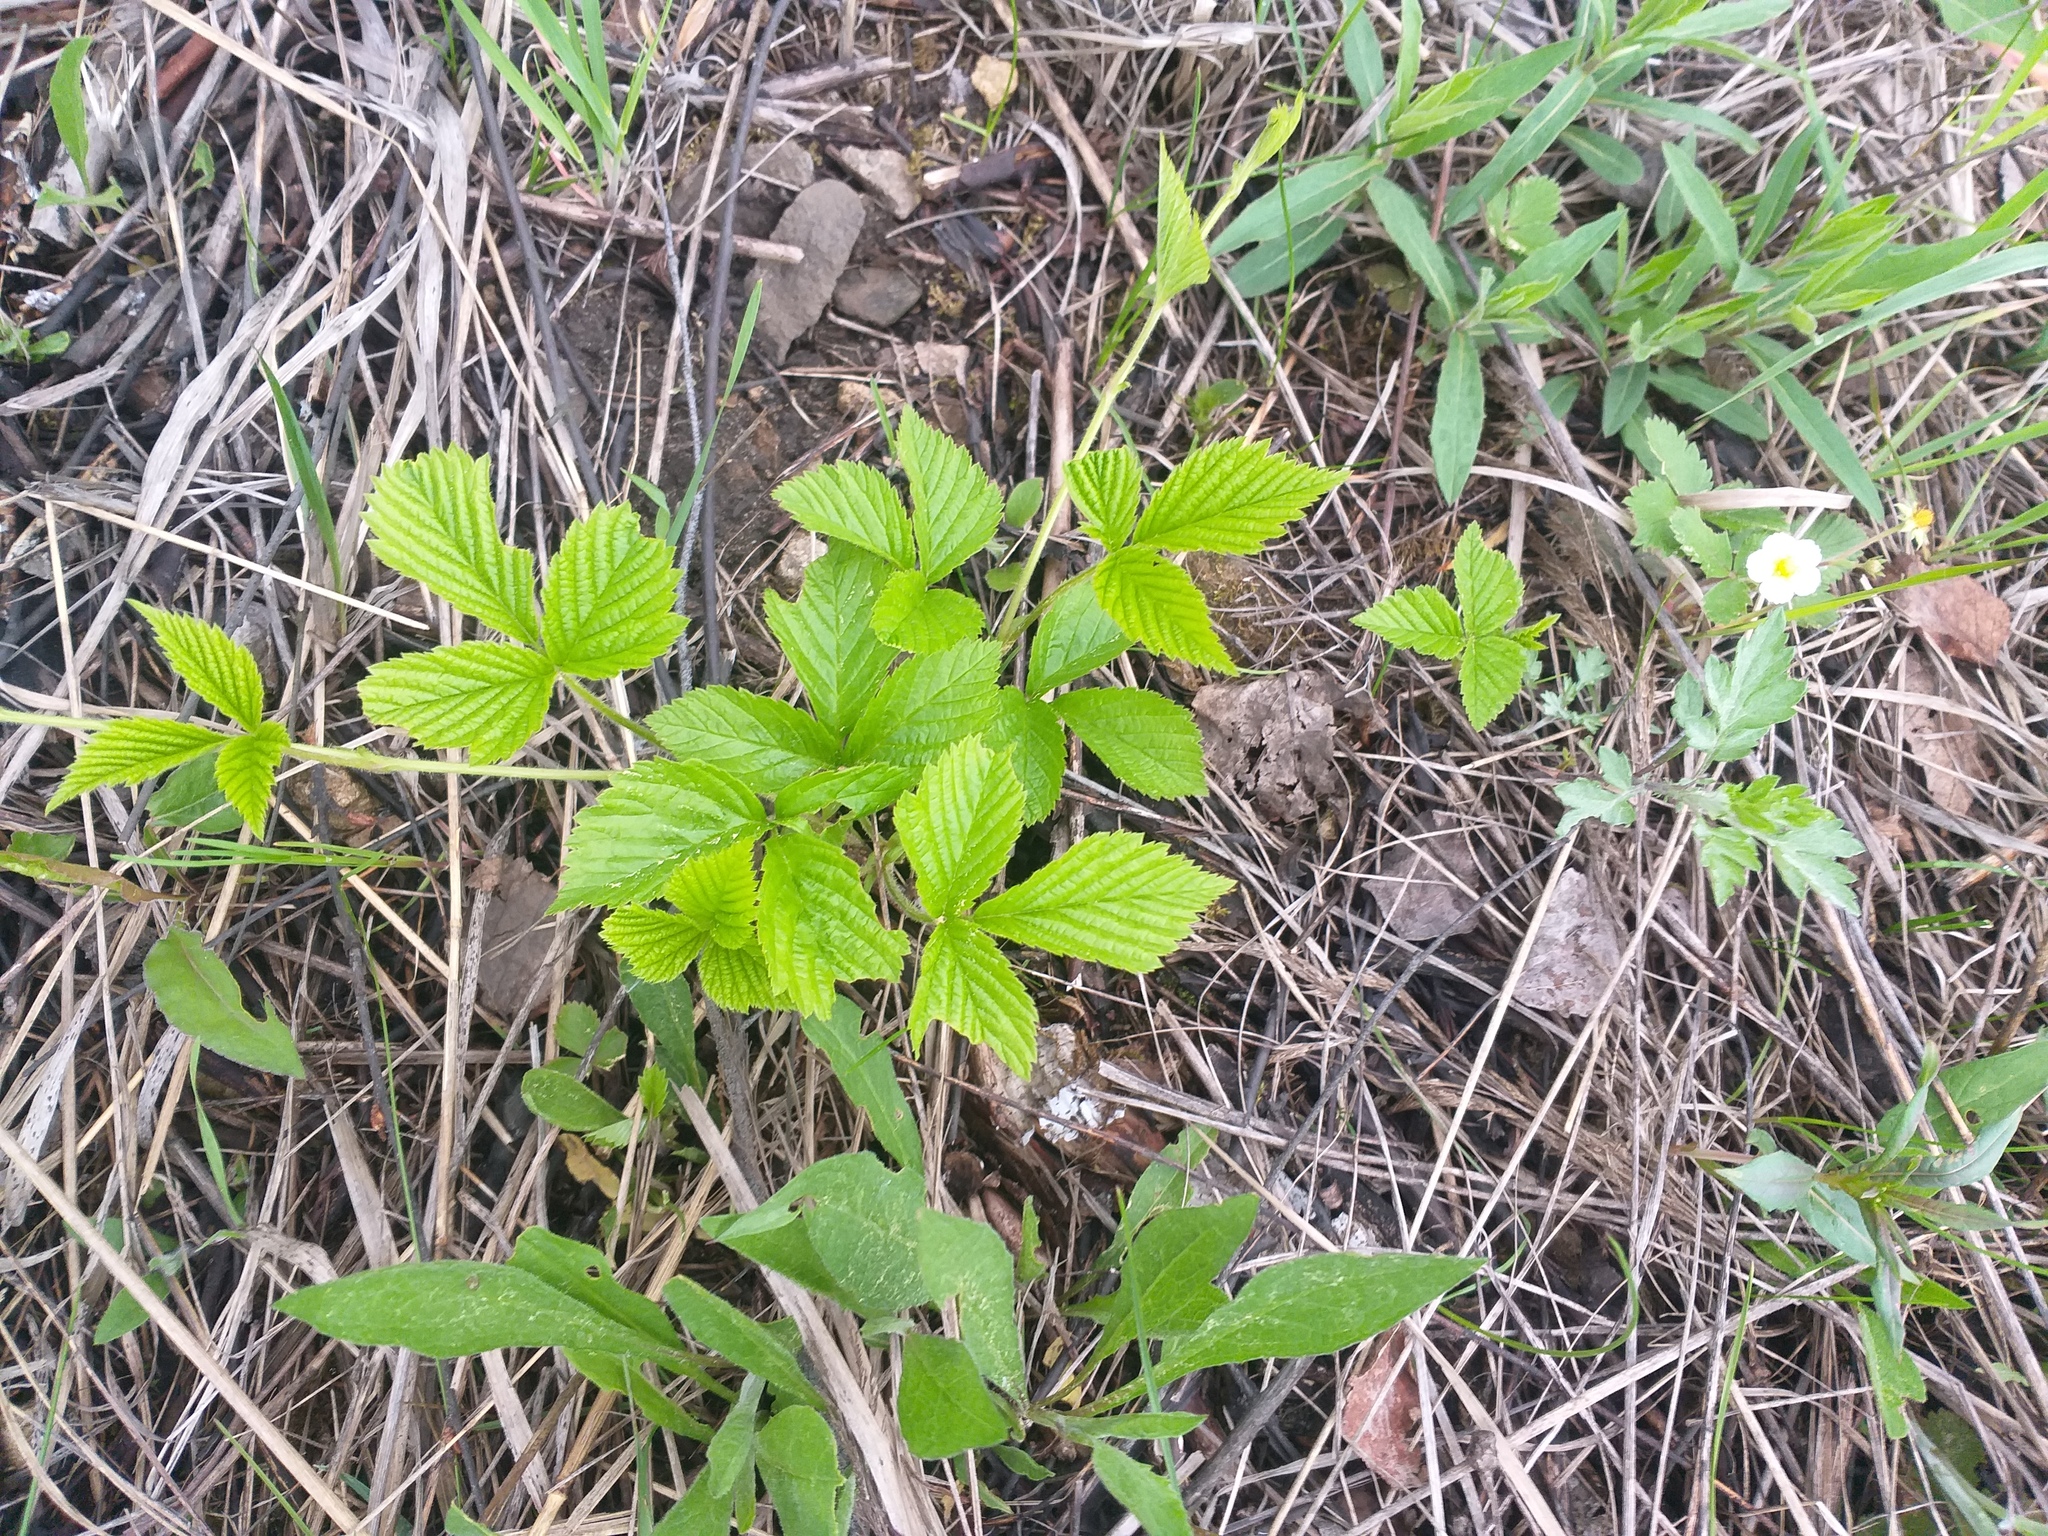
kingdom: Plantae
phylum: Tracheophyta
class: Magnoliopsida
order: Rosales
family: Rosaceae
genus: Rubus
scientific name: Rubus saxatilis
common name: Stone bramble
